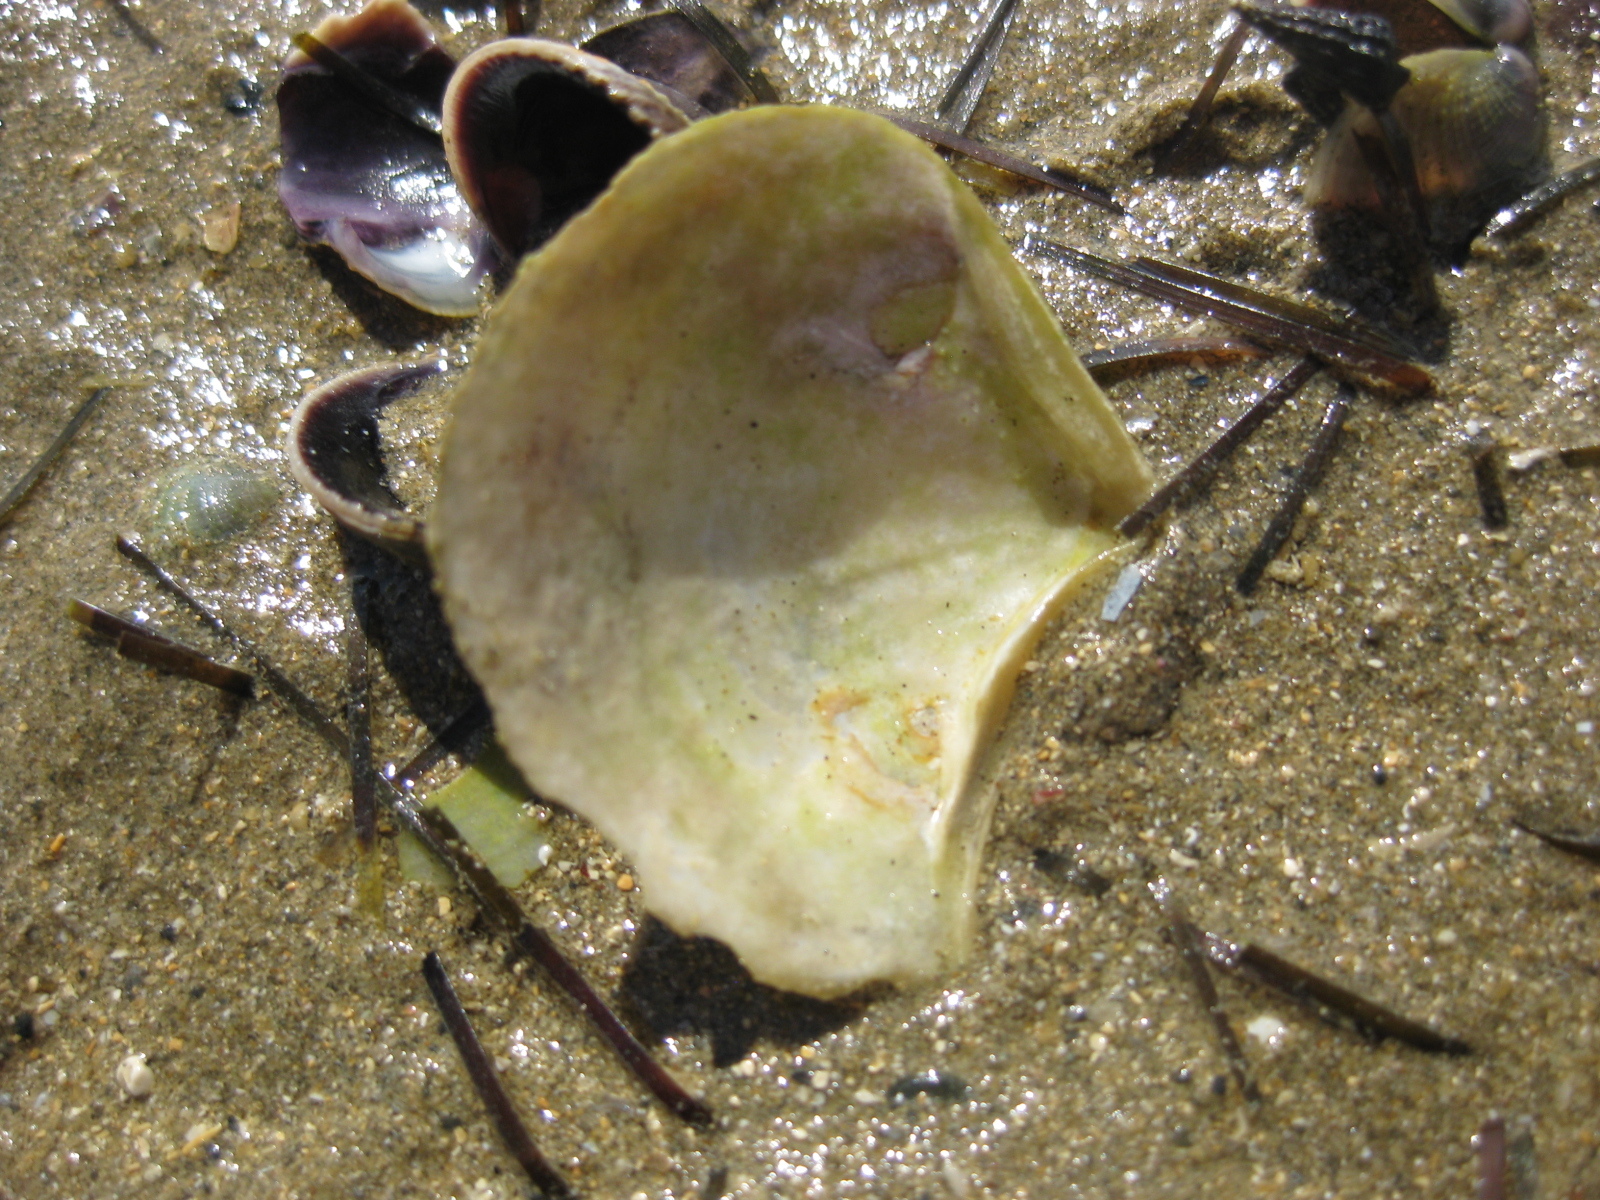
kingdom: Animalia
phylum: Mollusca
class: Bivalvia
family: Myochamidae
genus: Myadora
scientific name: Myadora striata
